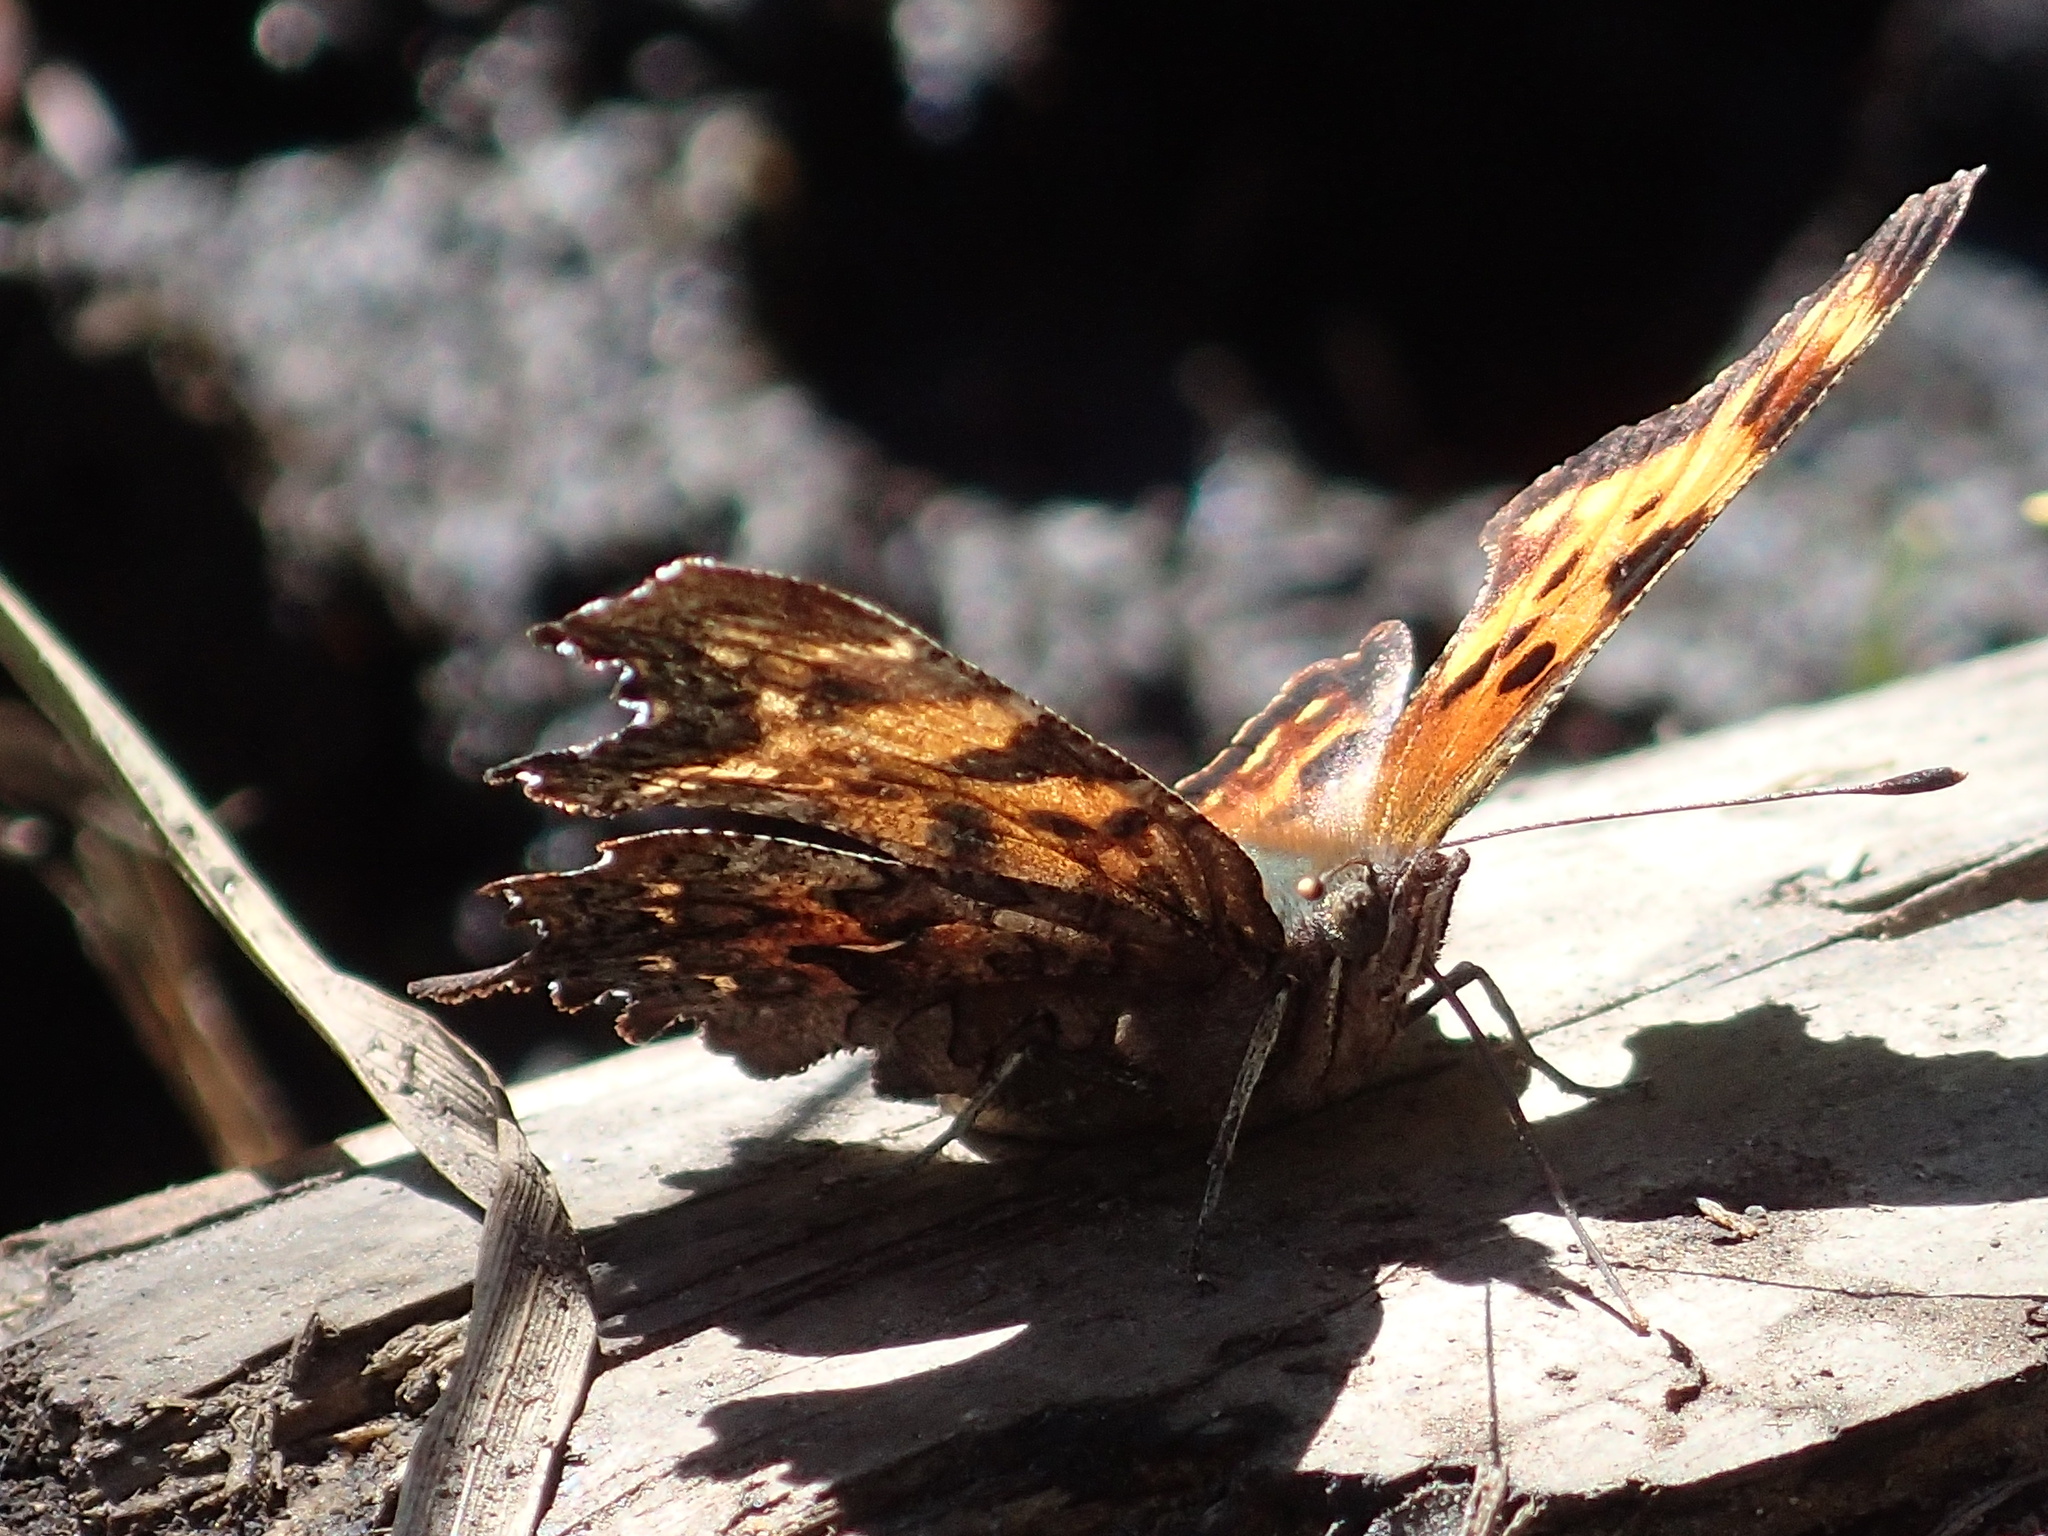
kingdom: Animalia
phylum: Arthropoda
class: Insecta
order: Lepidoptera
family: Nymphalidae
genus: Polygonia
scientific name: Polygonia faunus
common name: Green comma
